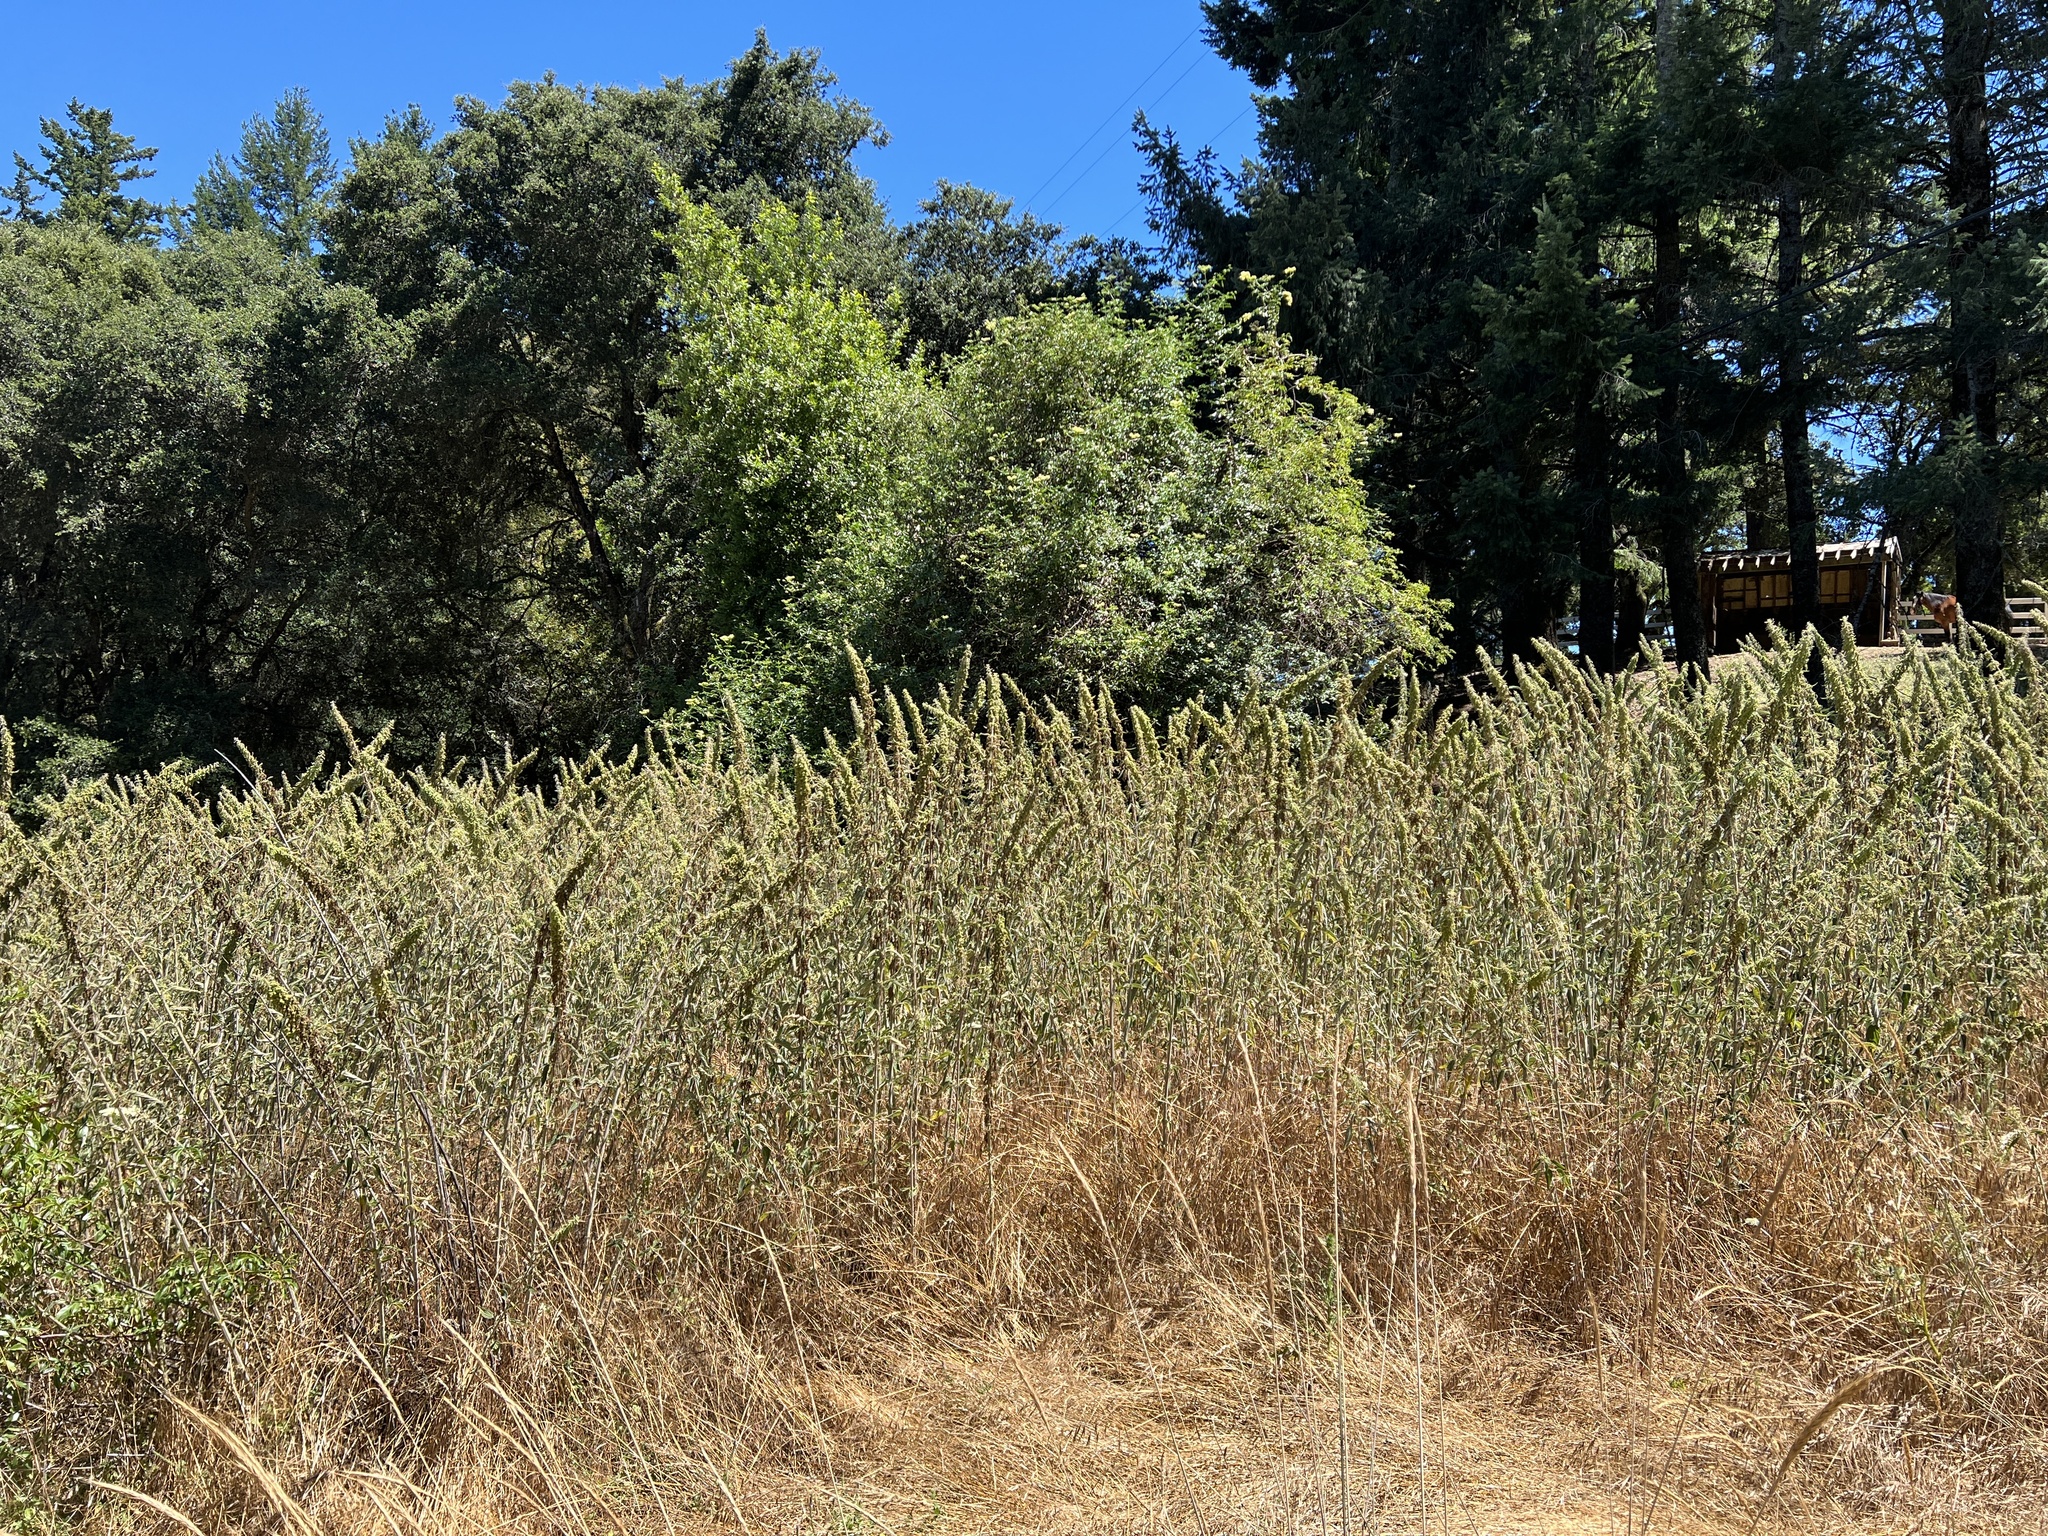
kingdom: Plantae
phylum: Tracheophyta
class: Magnoliopsida
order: Rosales
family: Urticaceae
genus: Urtica
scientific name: Urtica dioica
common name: Common nettle
